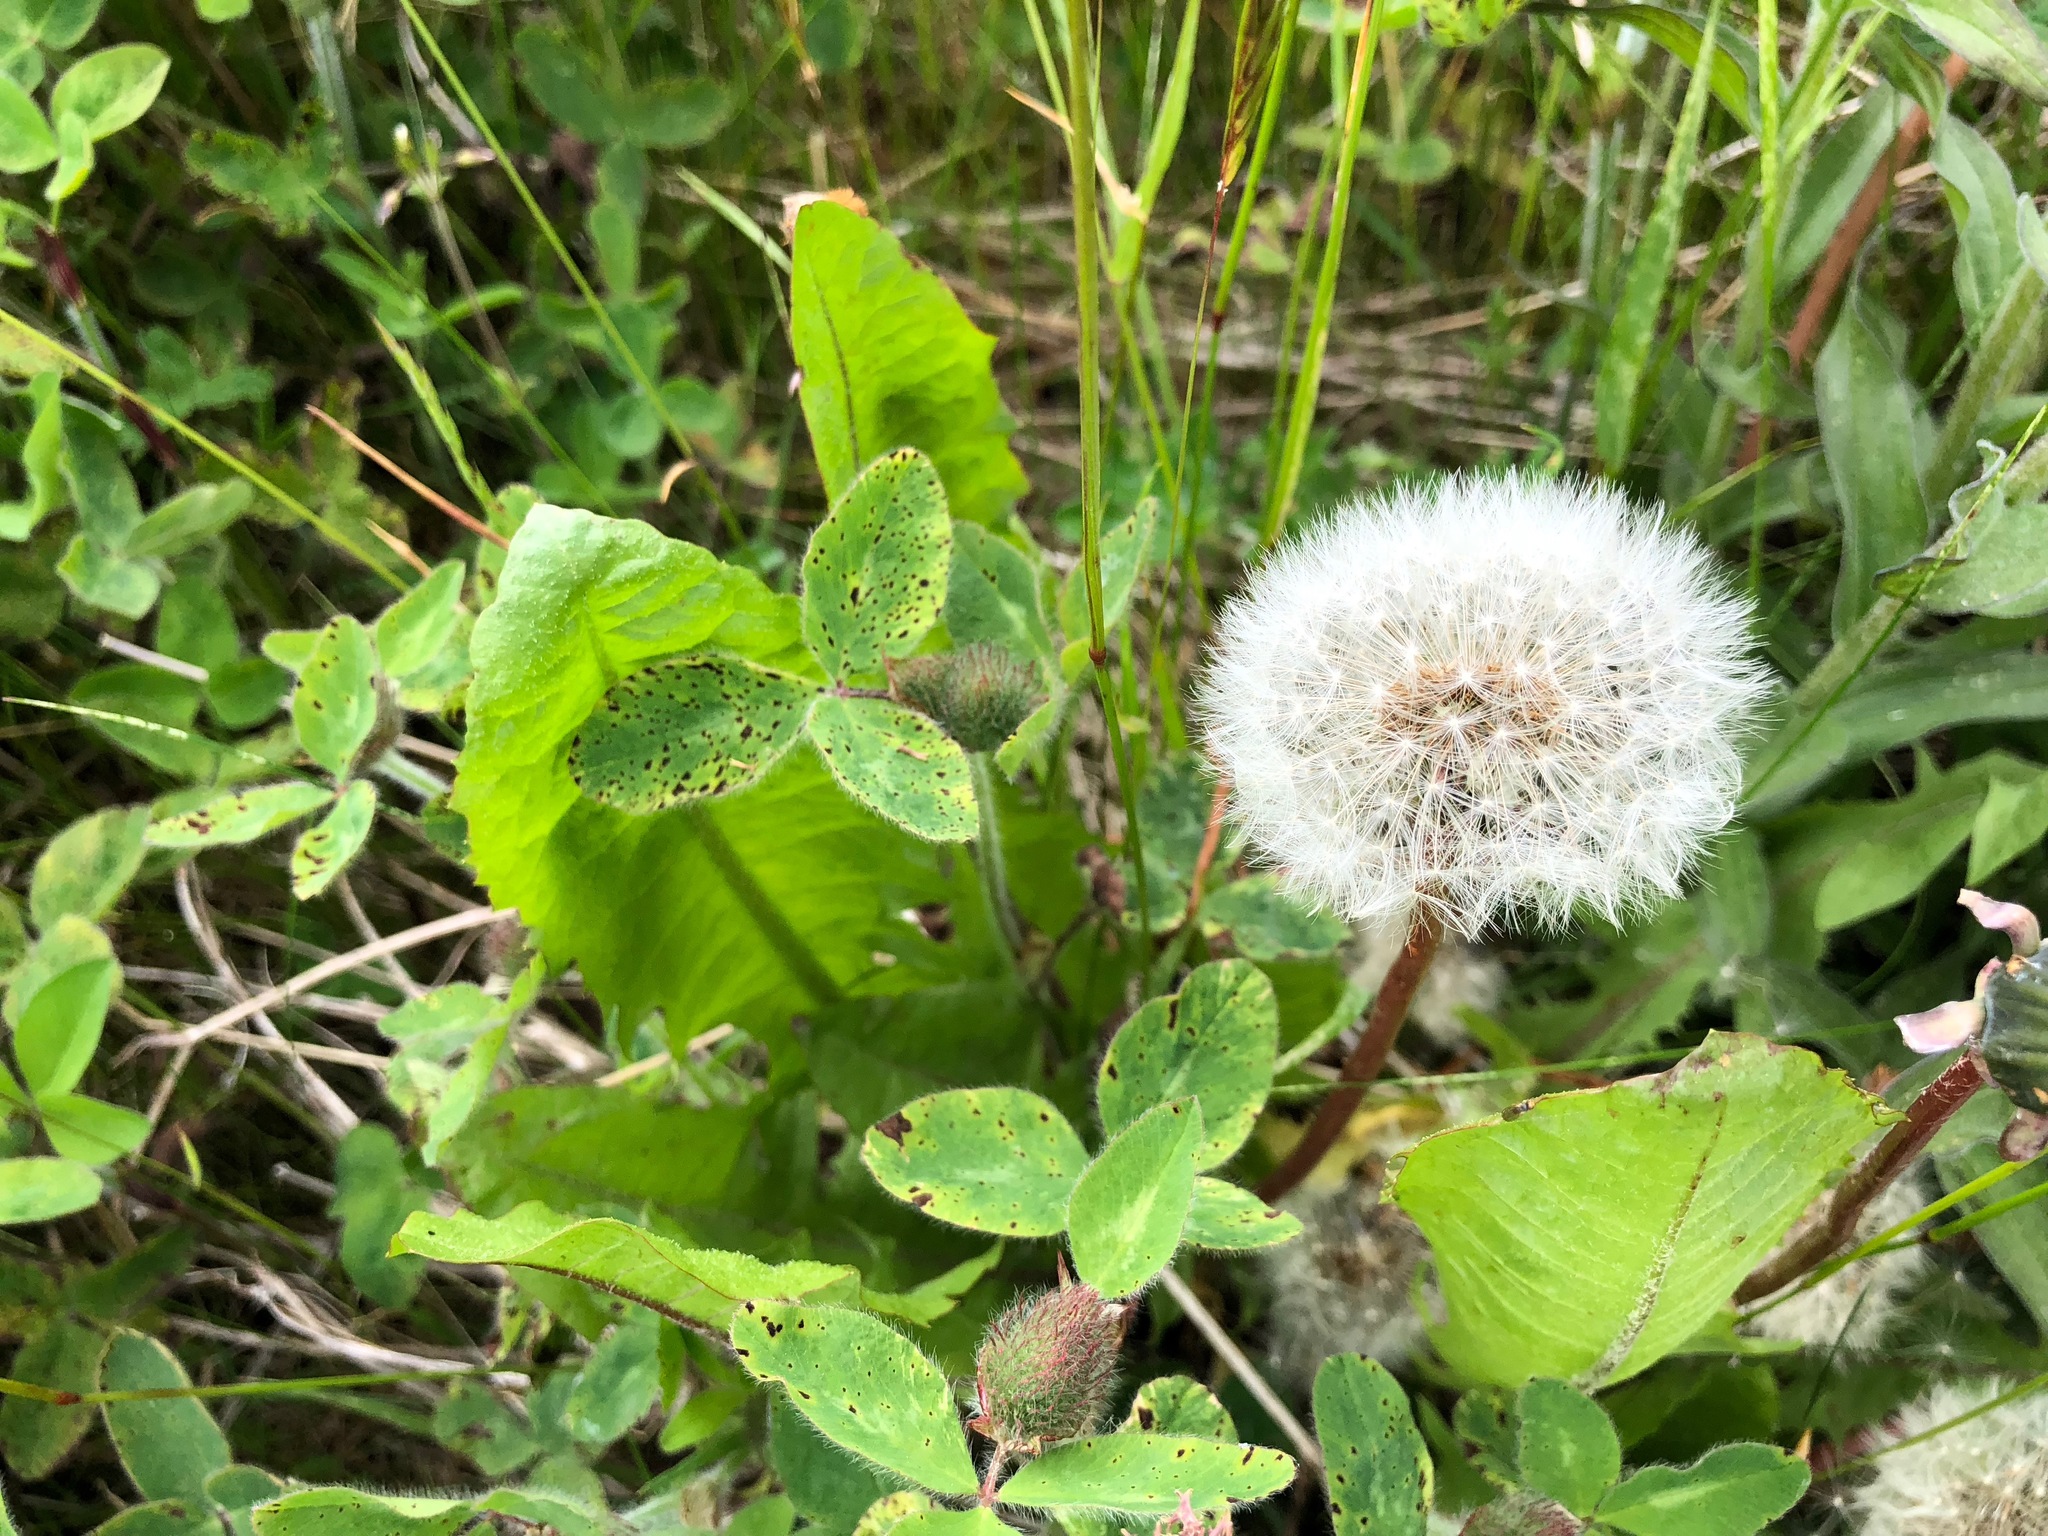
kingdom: Plantae
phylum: Tracheophyta
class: Magnoliopsida
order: Asterales
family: Asteraceae
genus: Taraxacum
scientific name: Taraxacum officinale
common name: Common dandelion
